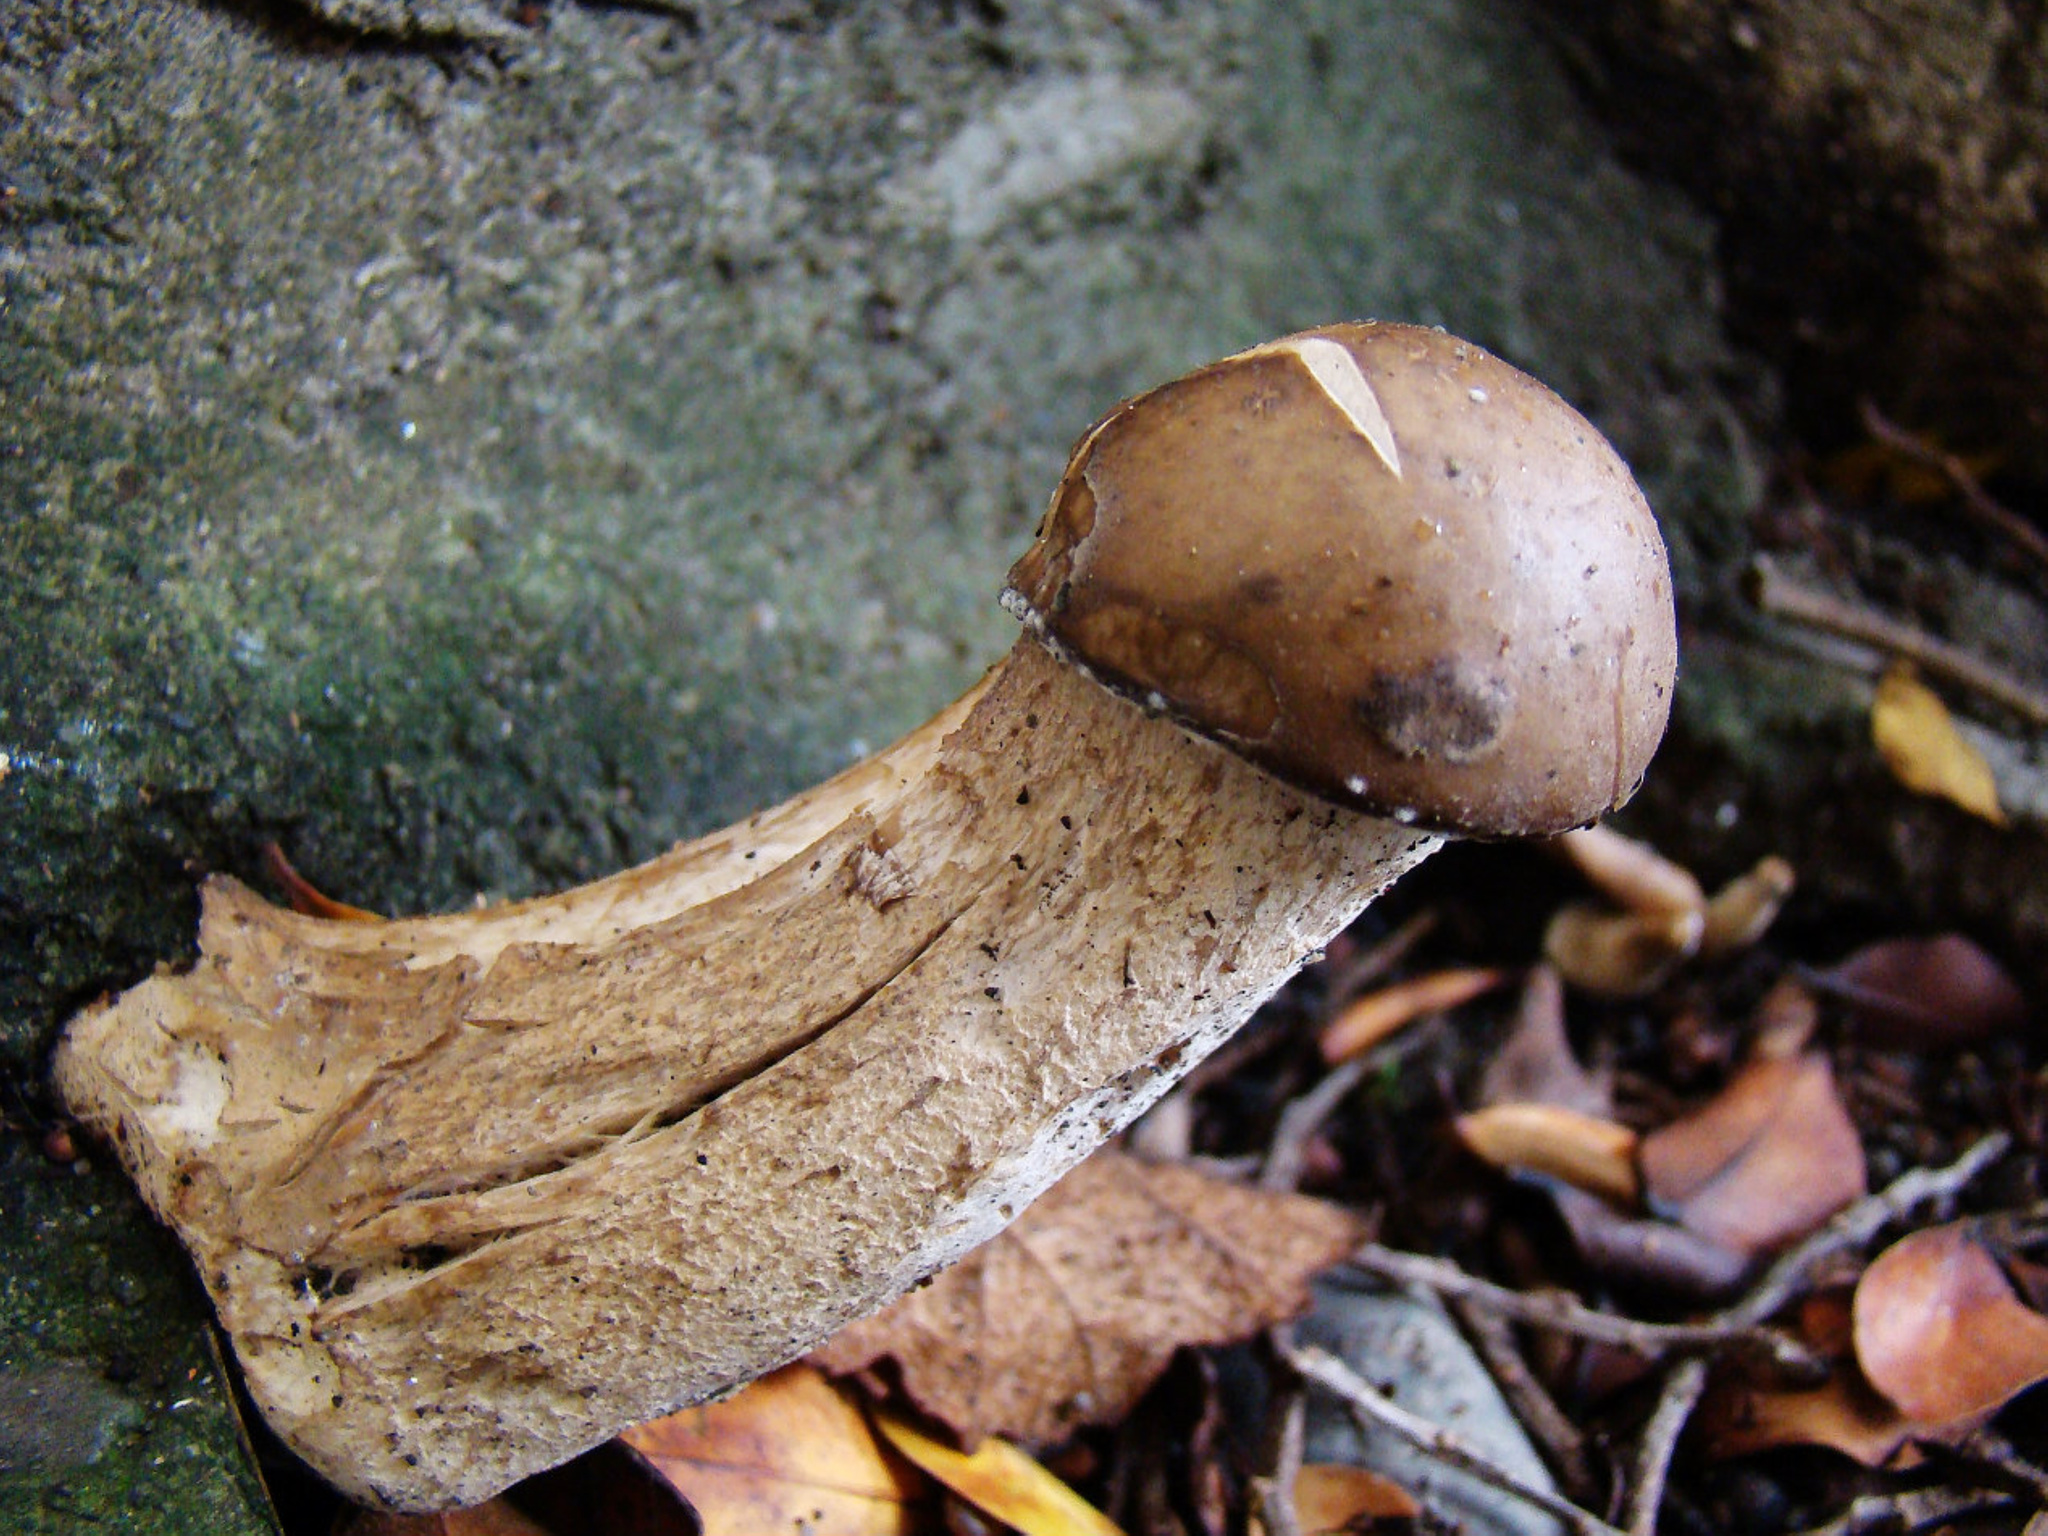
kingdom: Fungi
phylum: Basidiomycota
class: Agaricomycetes
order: Agaricales
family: Callistosporiaceae
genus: Macrocybe
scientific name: Macrocybe gigantea
